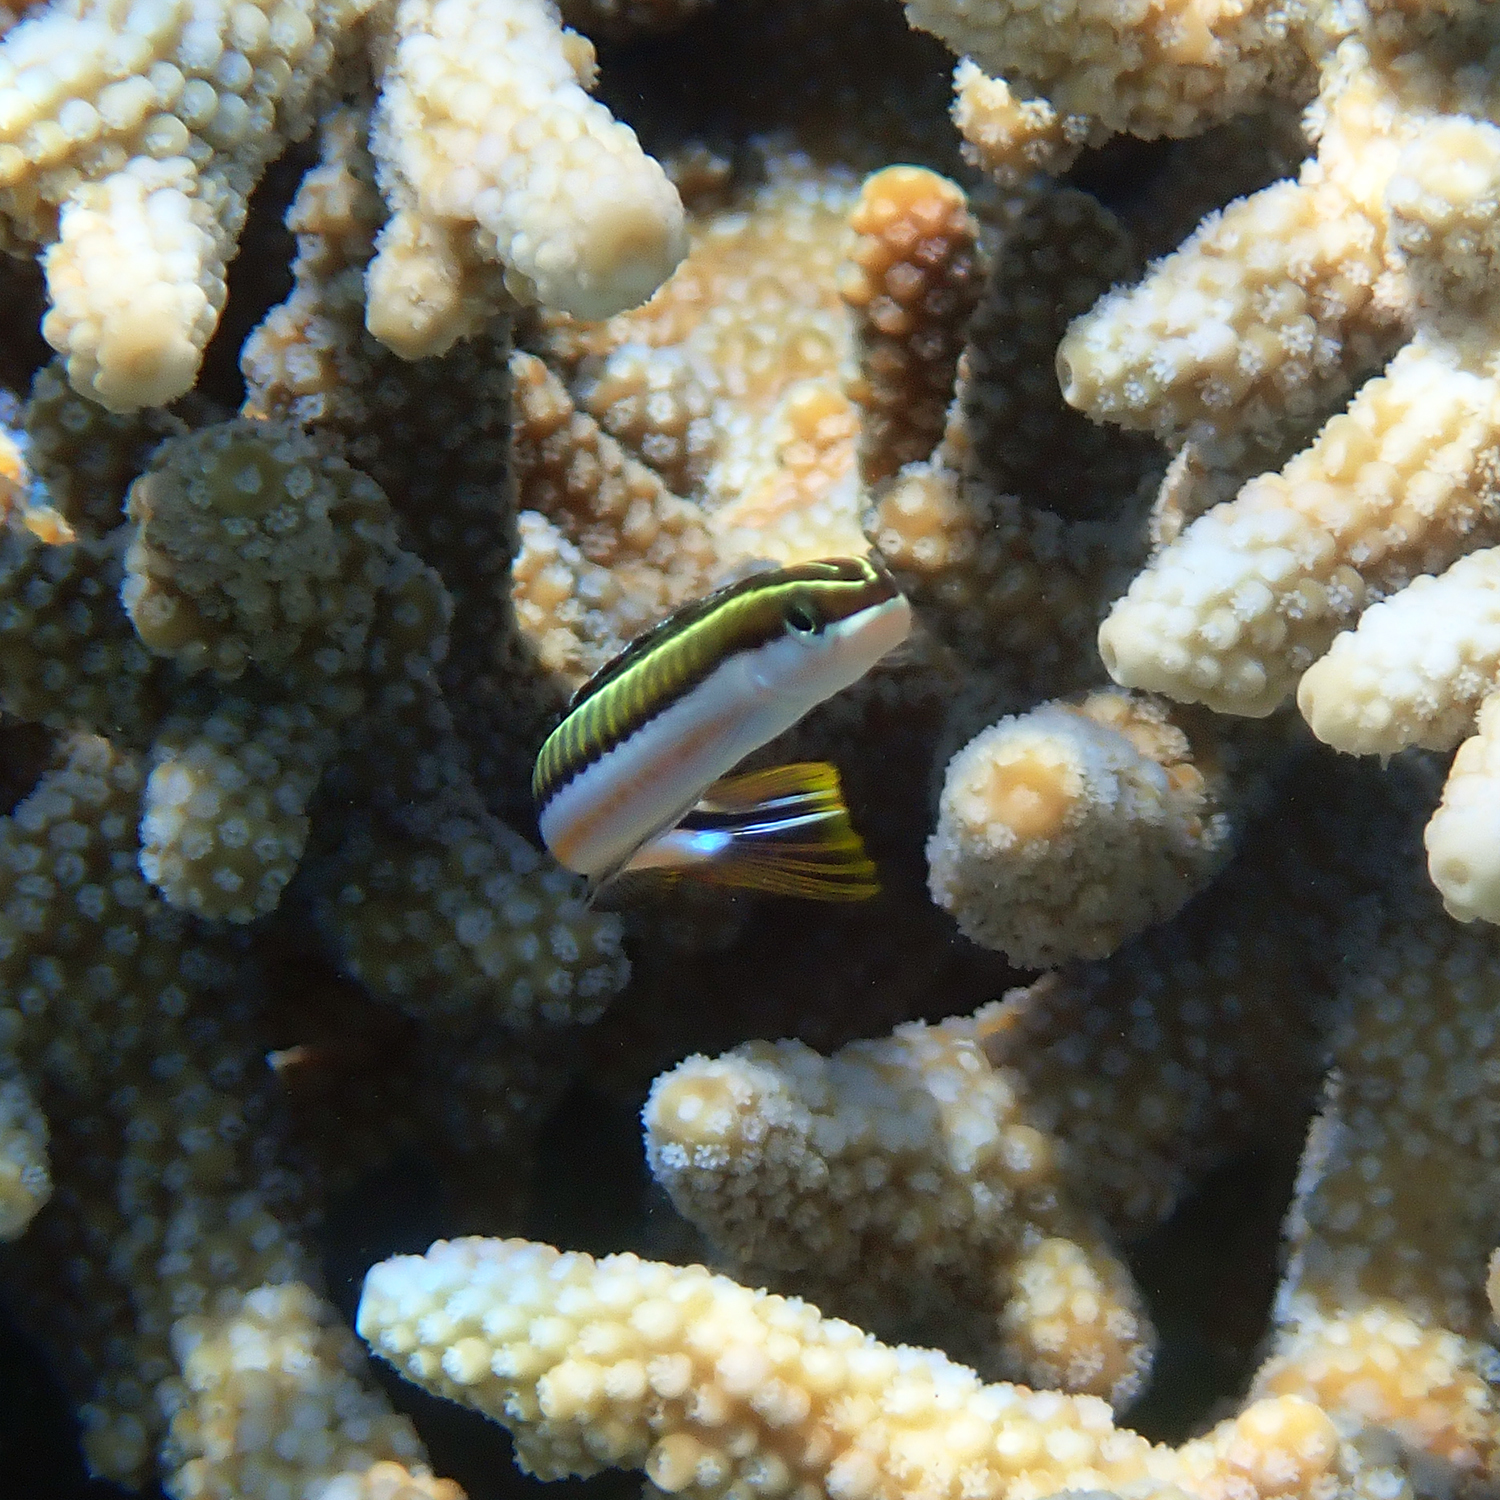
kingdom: Animalia
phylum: Chordata
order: Perciformes
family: Blenniidae
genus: Plagiotremus
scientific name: Plagiotremus tapeinosoma
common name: Hit and run blenny
